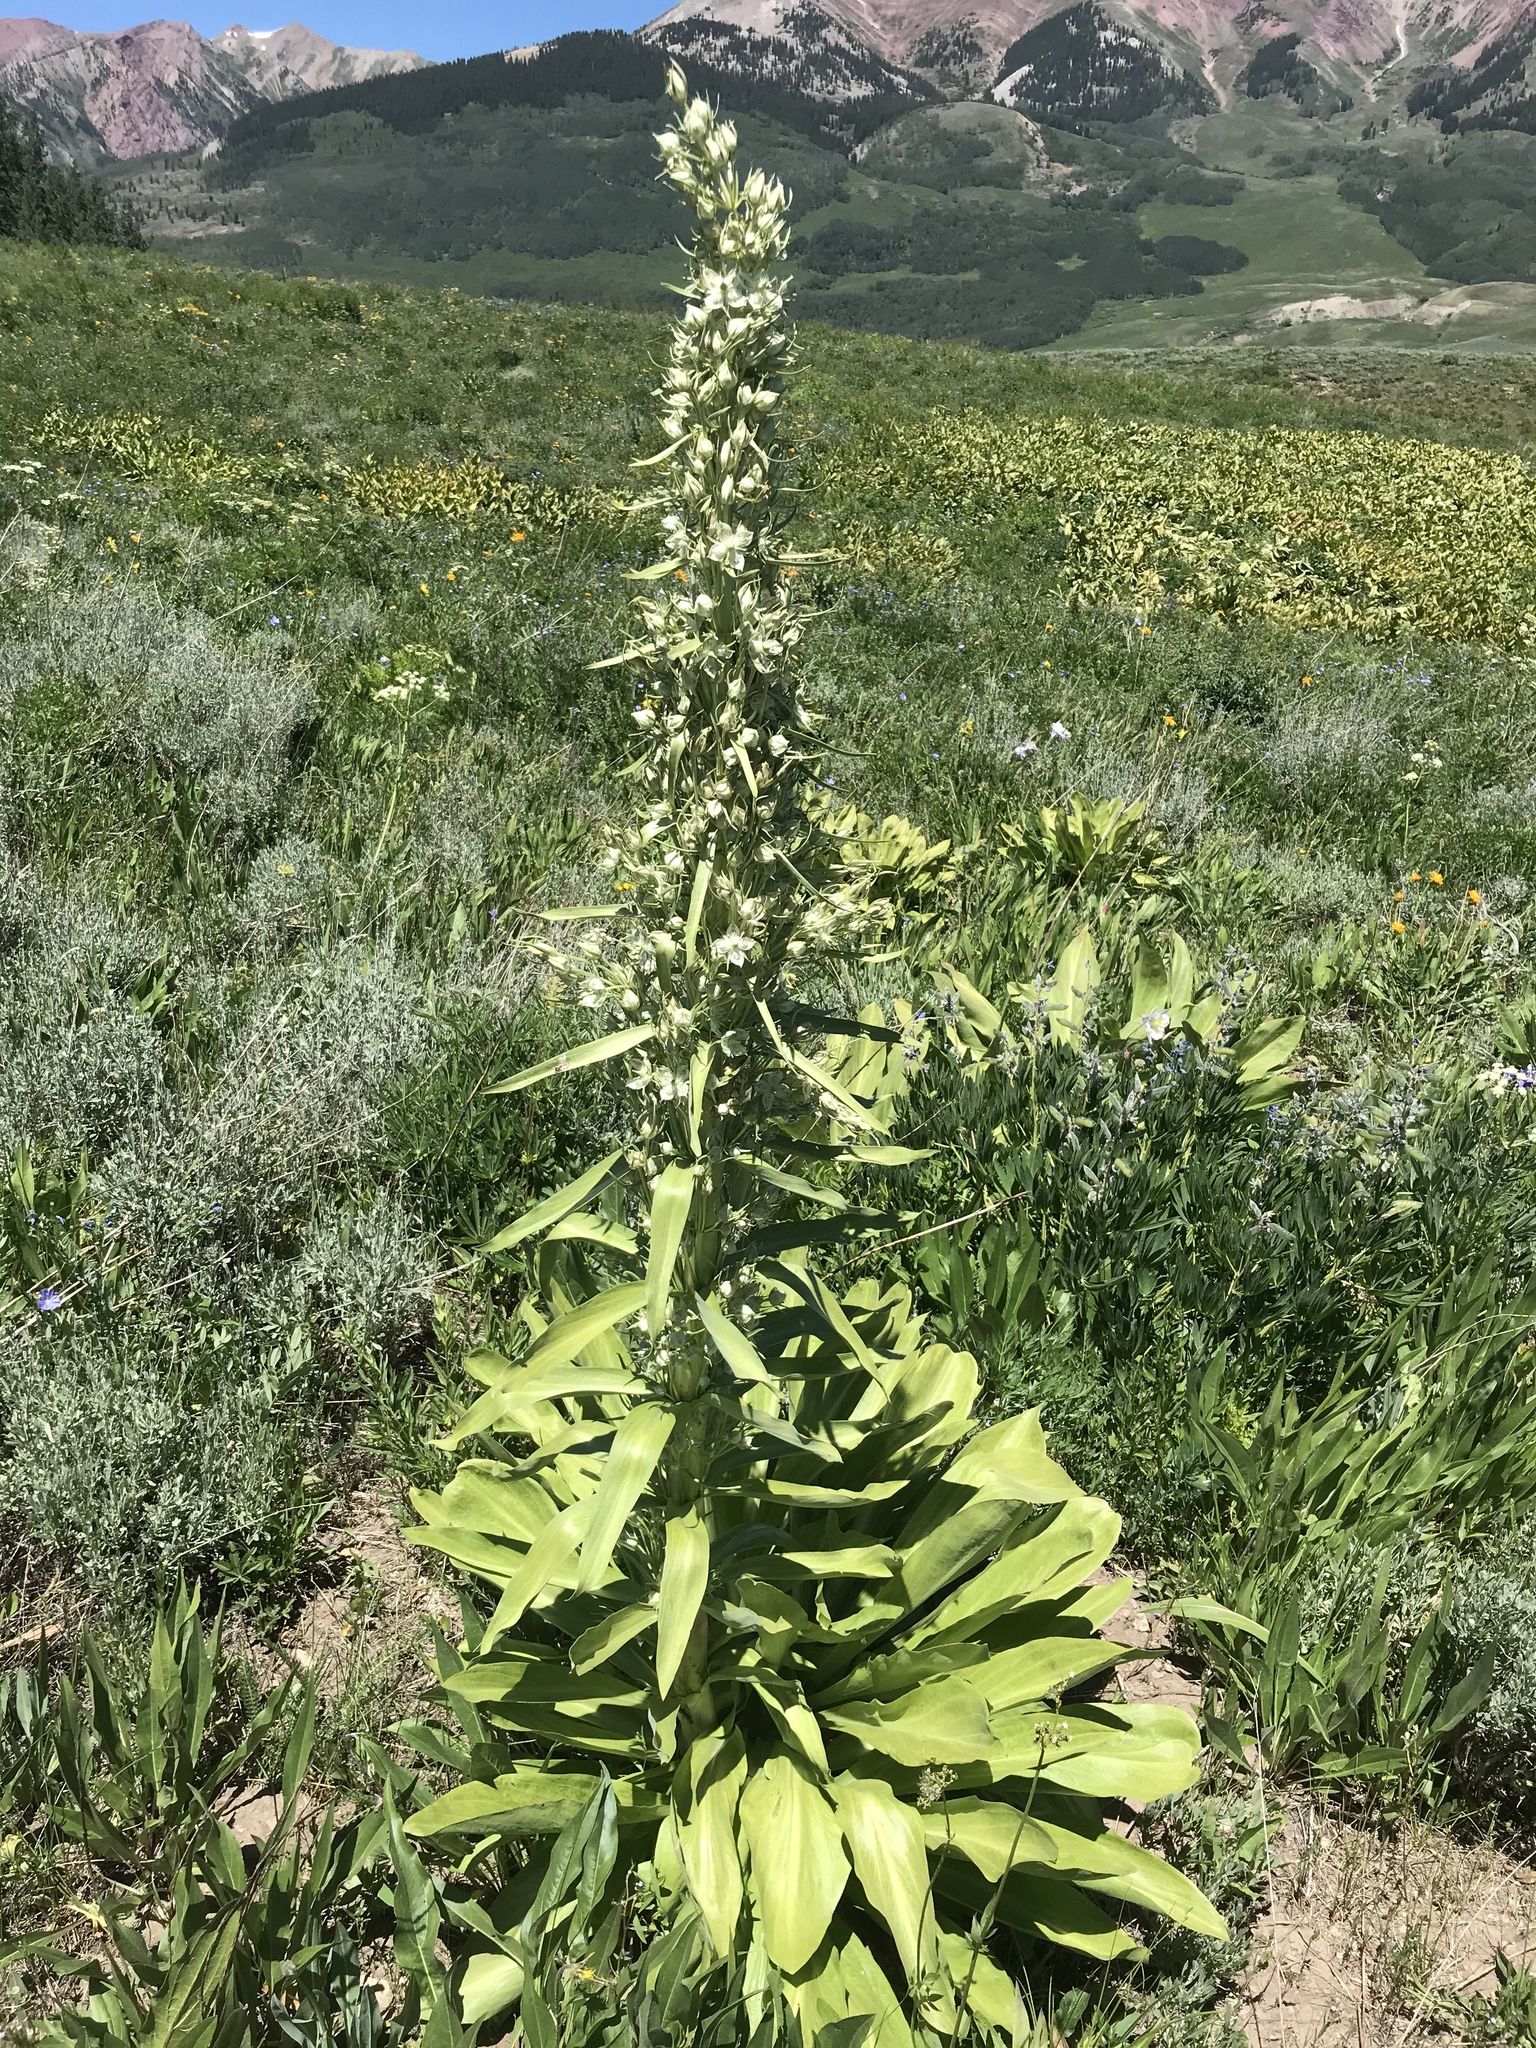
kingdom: Plantae
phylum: Tracheophyta
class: Magnoliopsida
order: Gentianales
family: Gentianaceae
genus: Frasera
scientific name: Frasera speciosa
